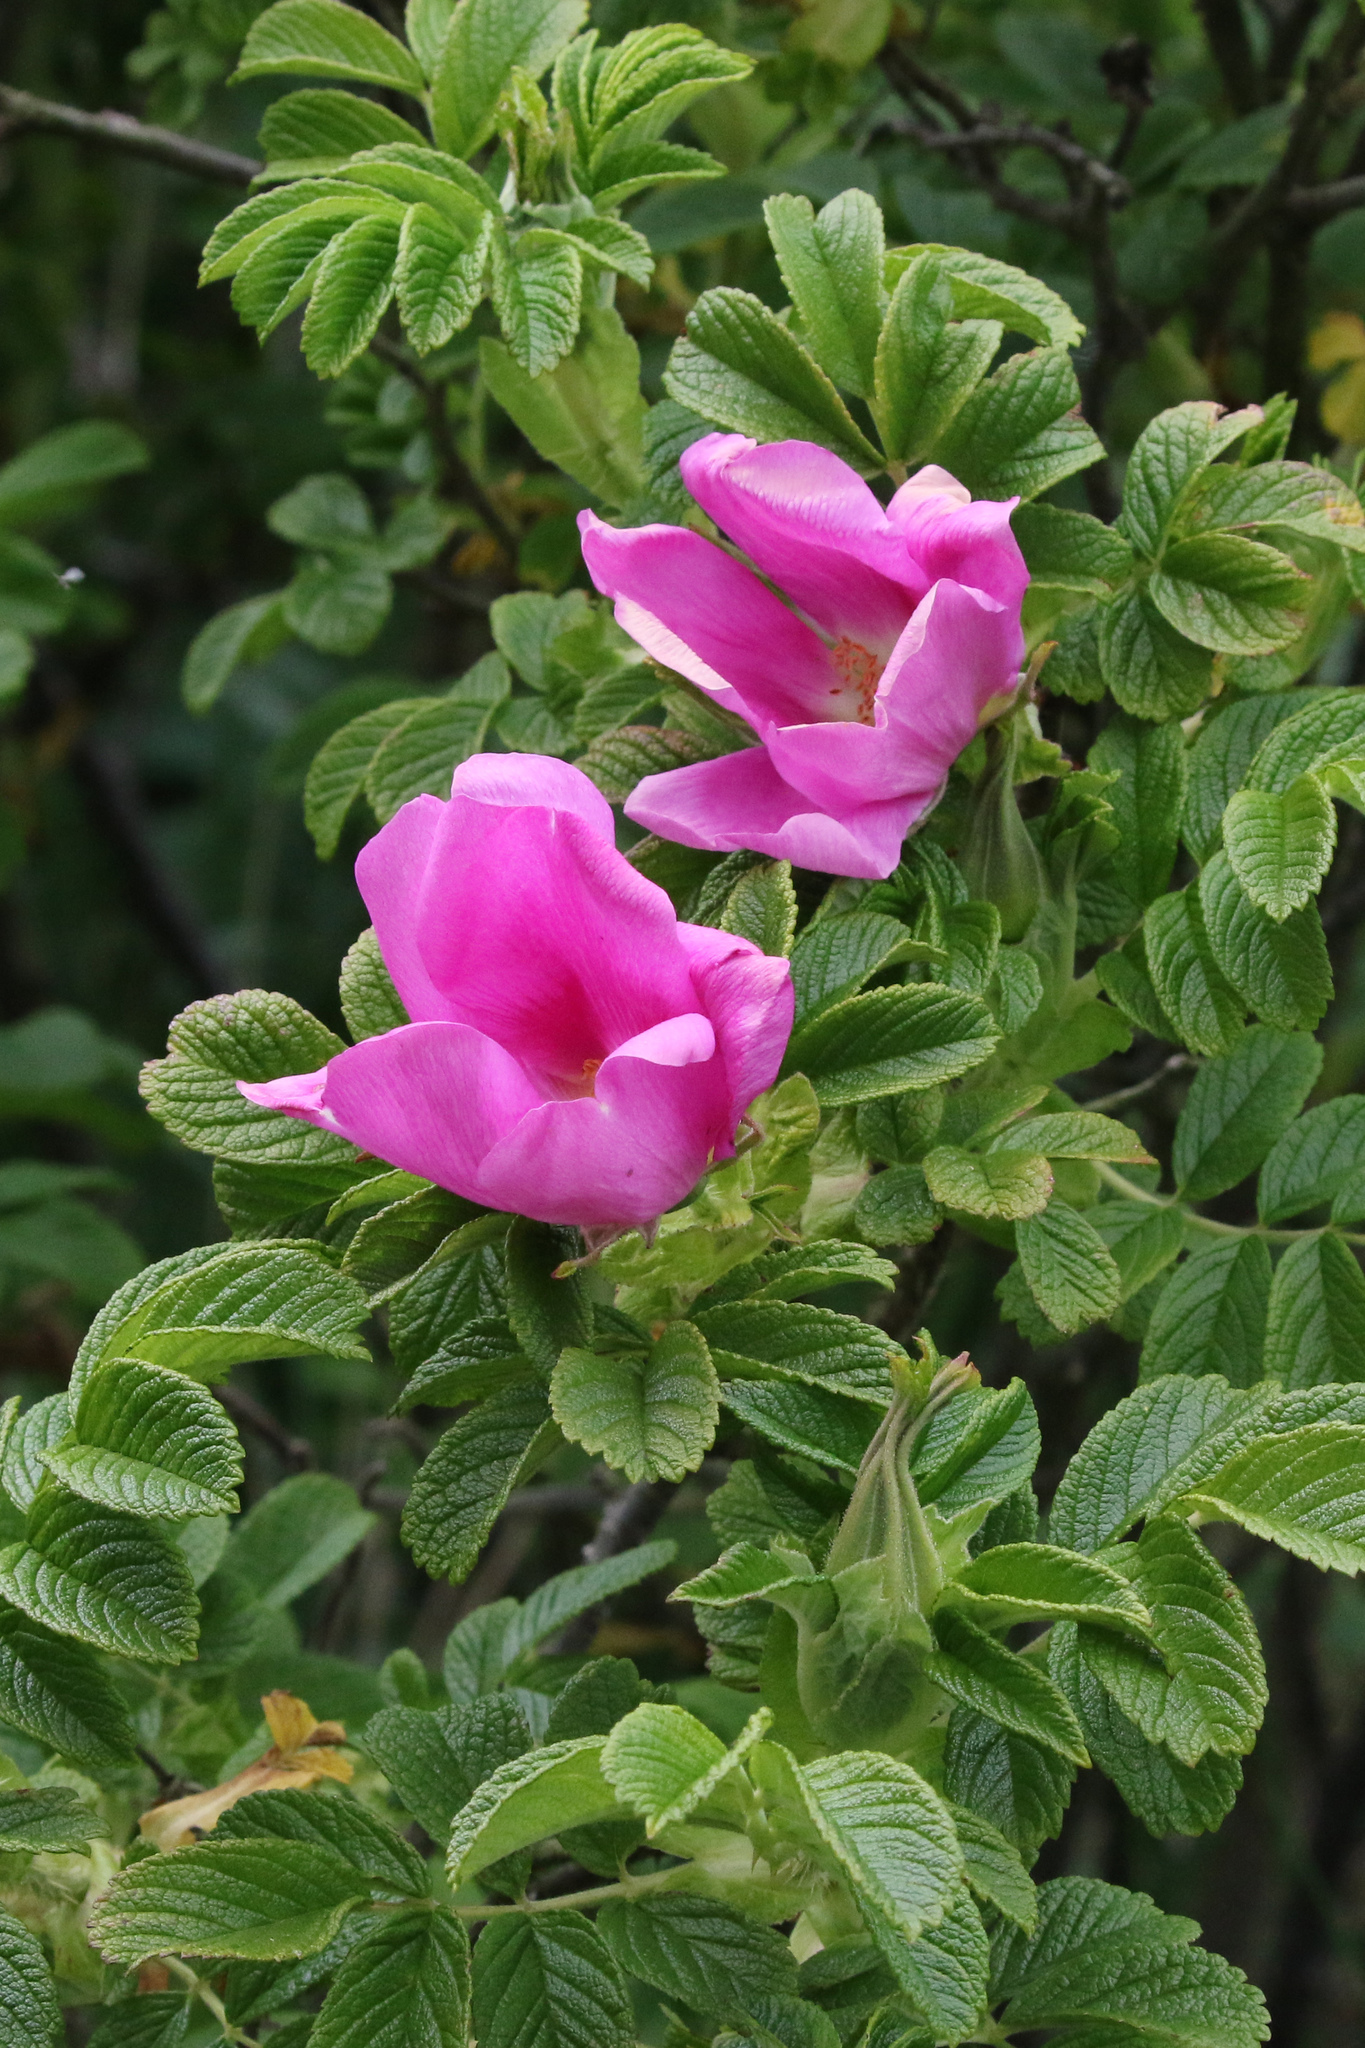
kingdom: Plantae
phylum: Tracheophyta
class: Magnoliopsida
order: Rosales
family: Rosaceae
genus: Rosa
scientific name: Rosa rugosa
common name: Japanese rose
